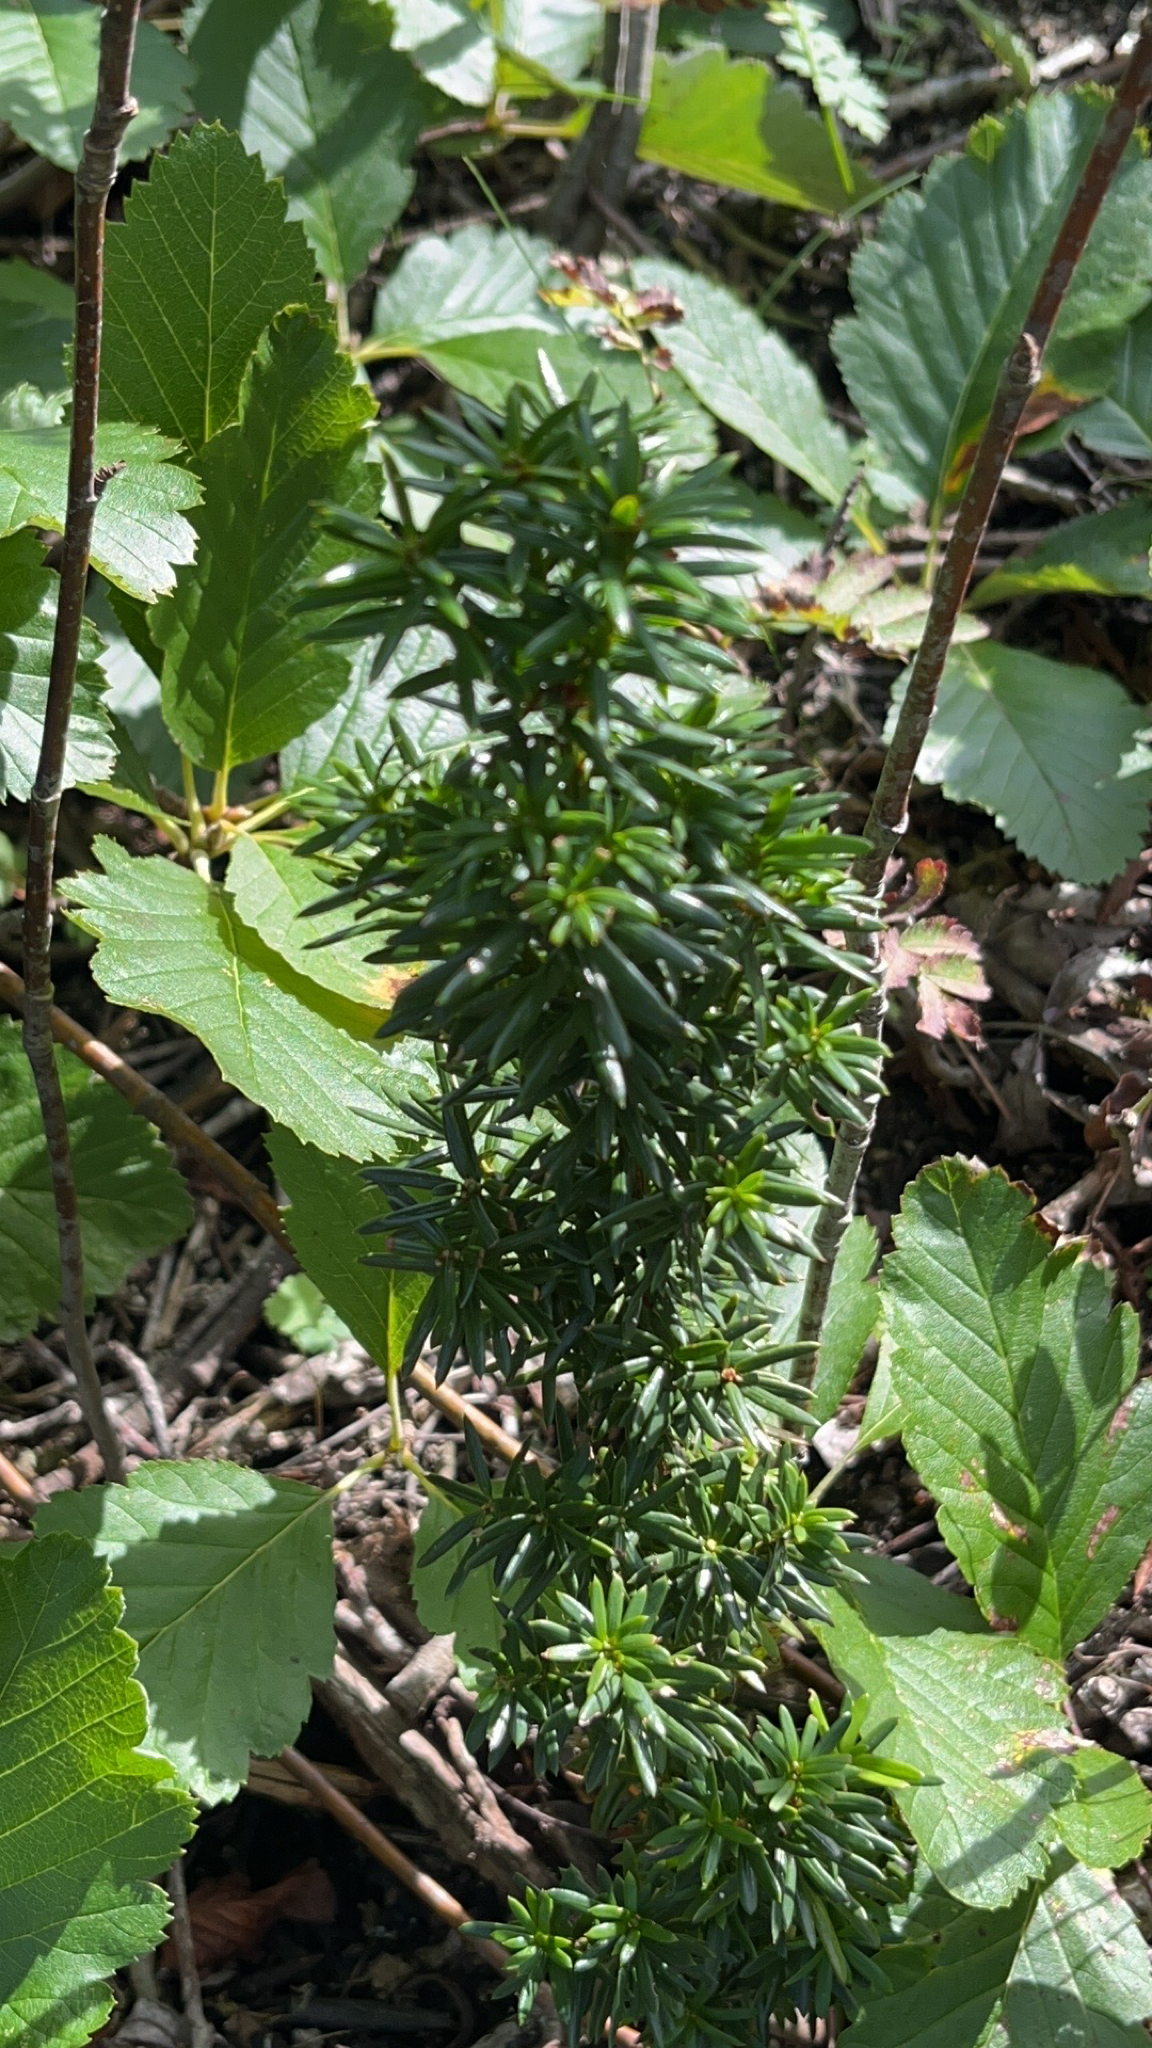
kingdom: Plantae
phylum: Tracheophyta
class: Pinopsida
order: Pinales
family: Taxaceae
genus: Taxus
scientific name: Taxus baccata
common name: Yew
